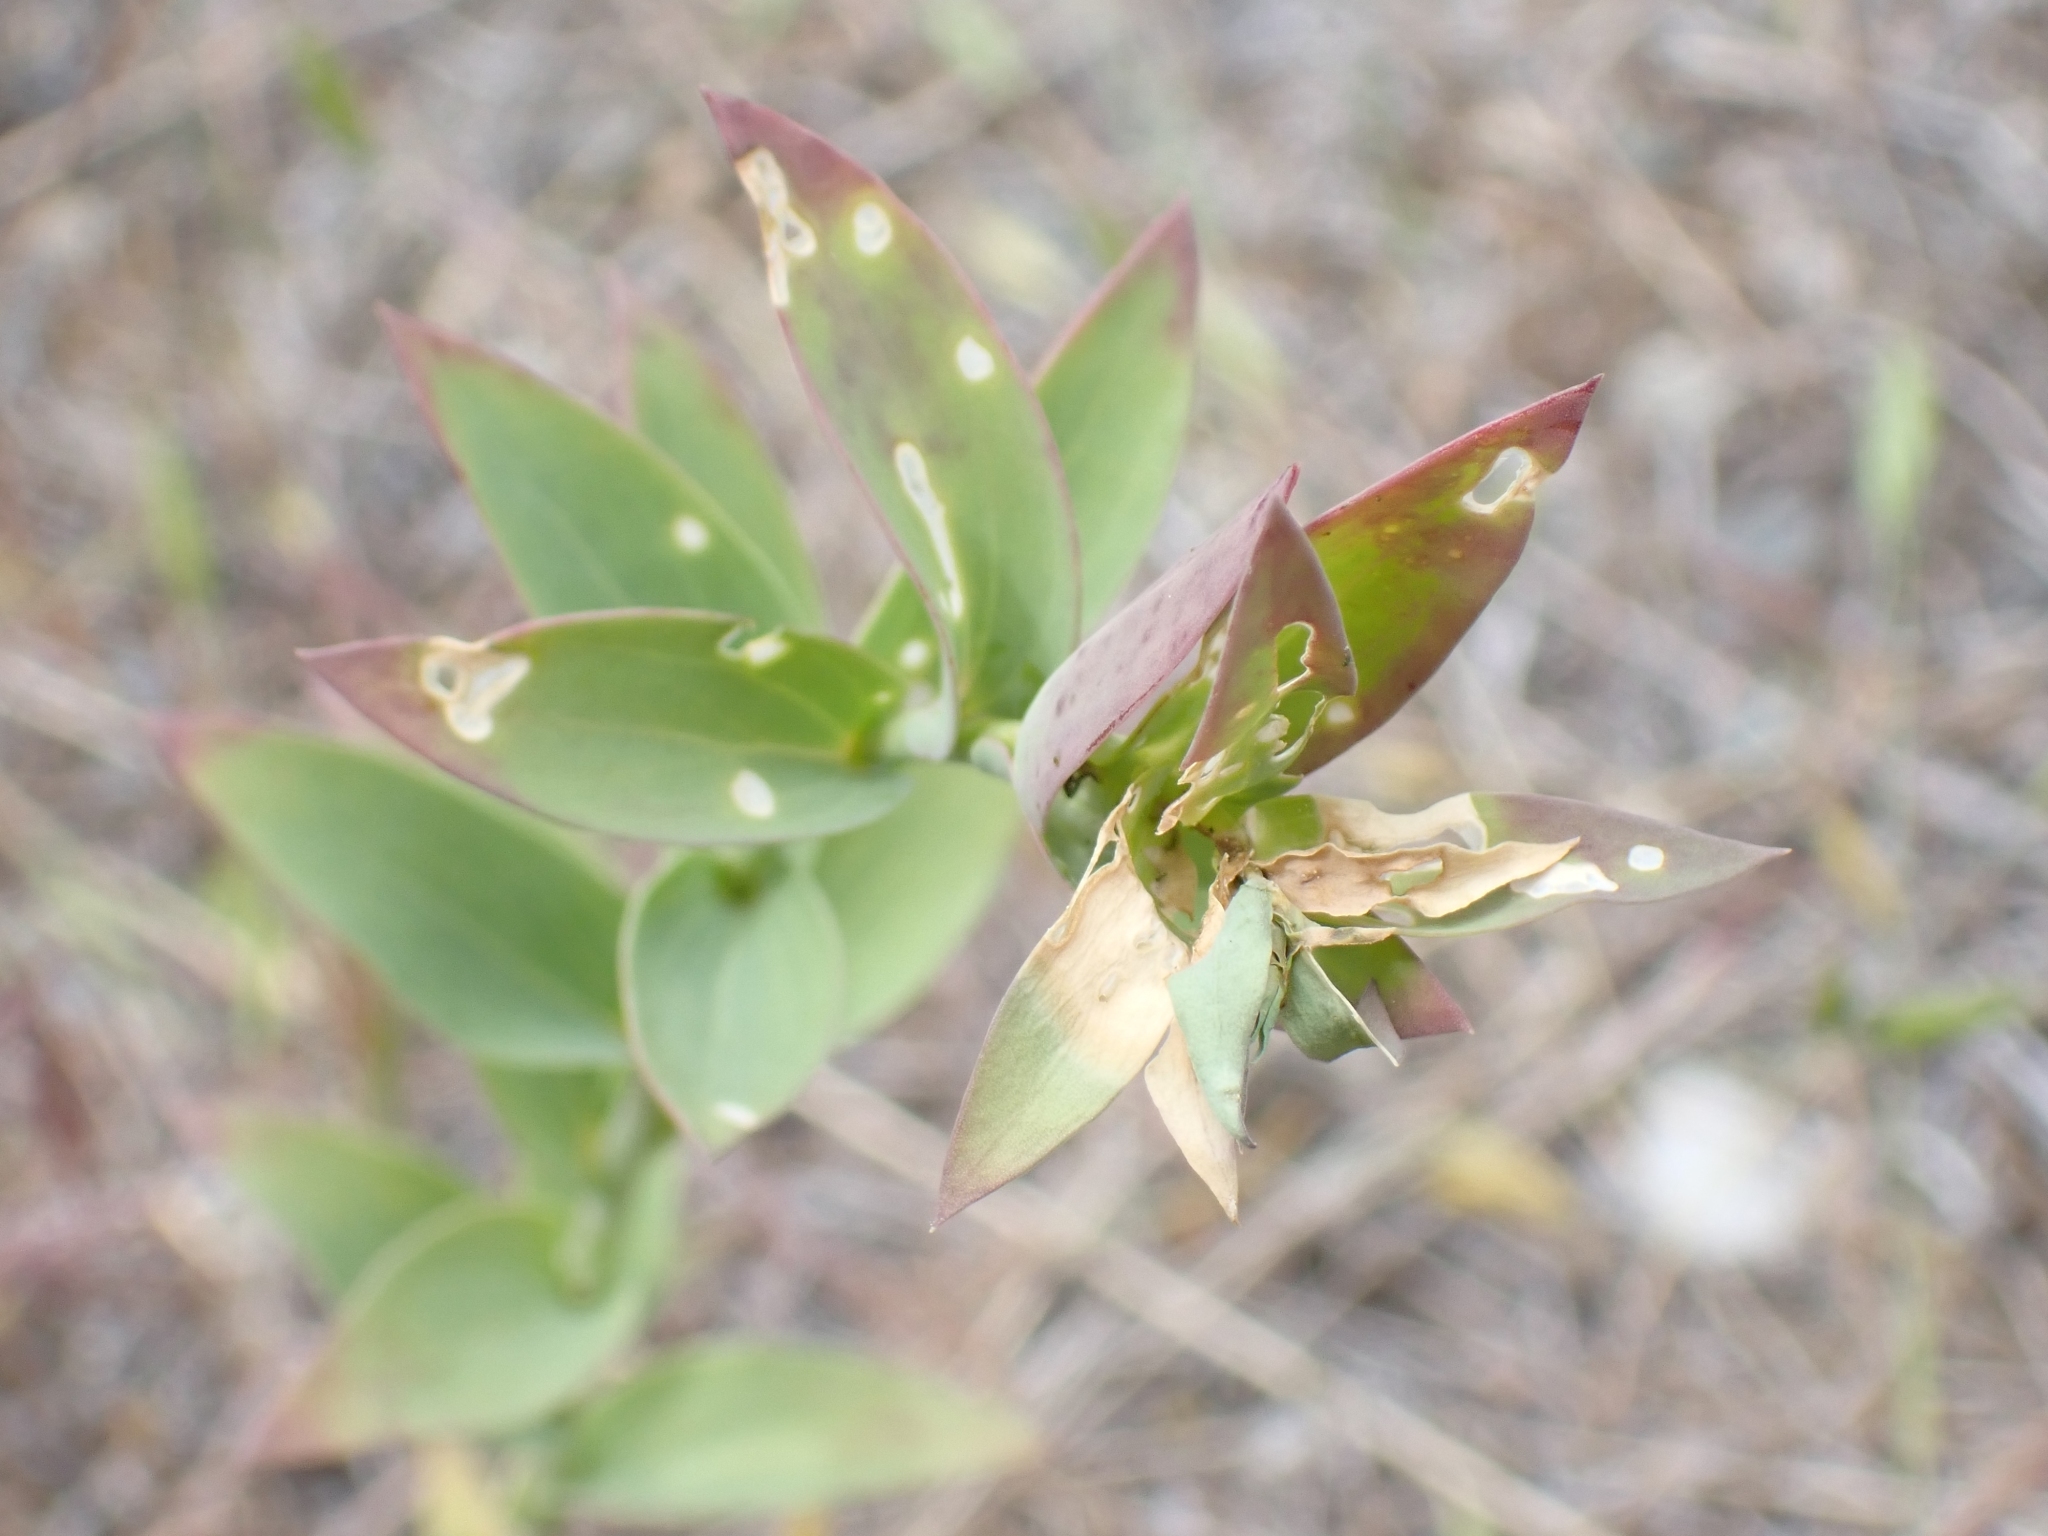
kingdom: Plantae
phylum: Tracheophyta
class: Magnoliopsida
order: Lamiales
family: Plantaginaceae
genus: Linaria
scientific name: Linaria dalmatica
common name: Dalmatian toadflax
